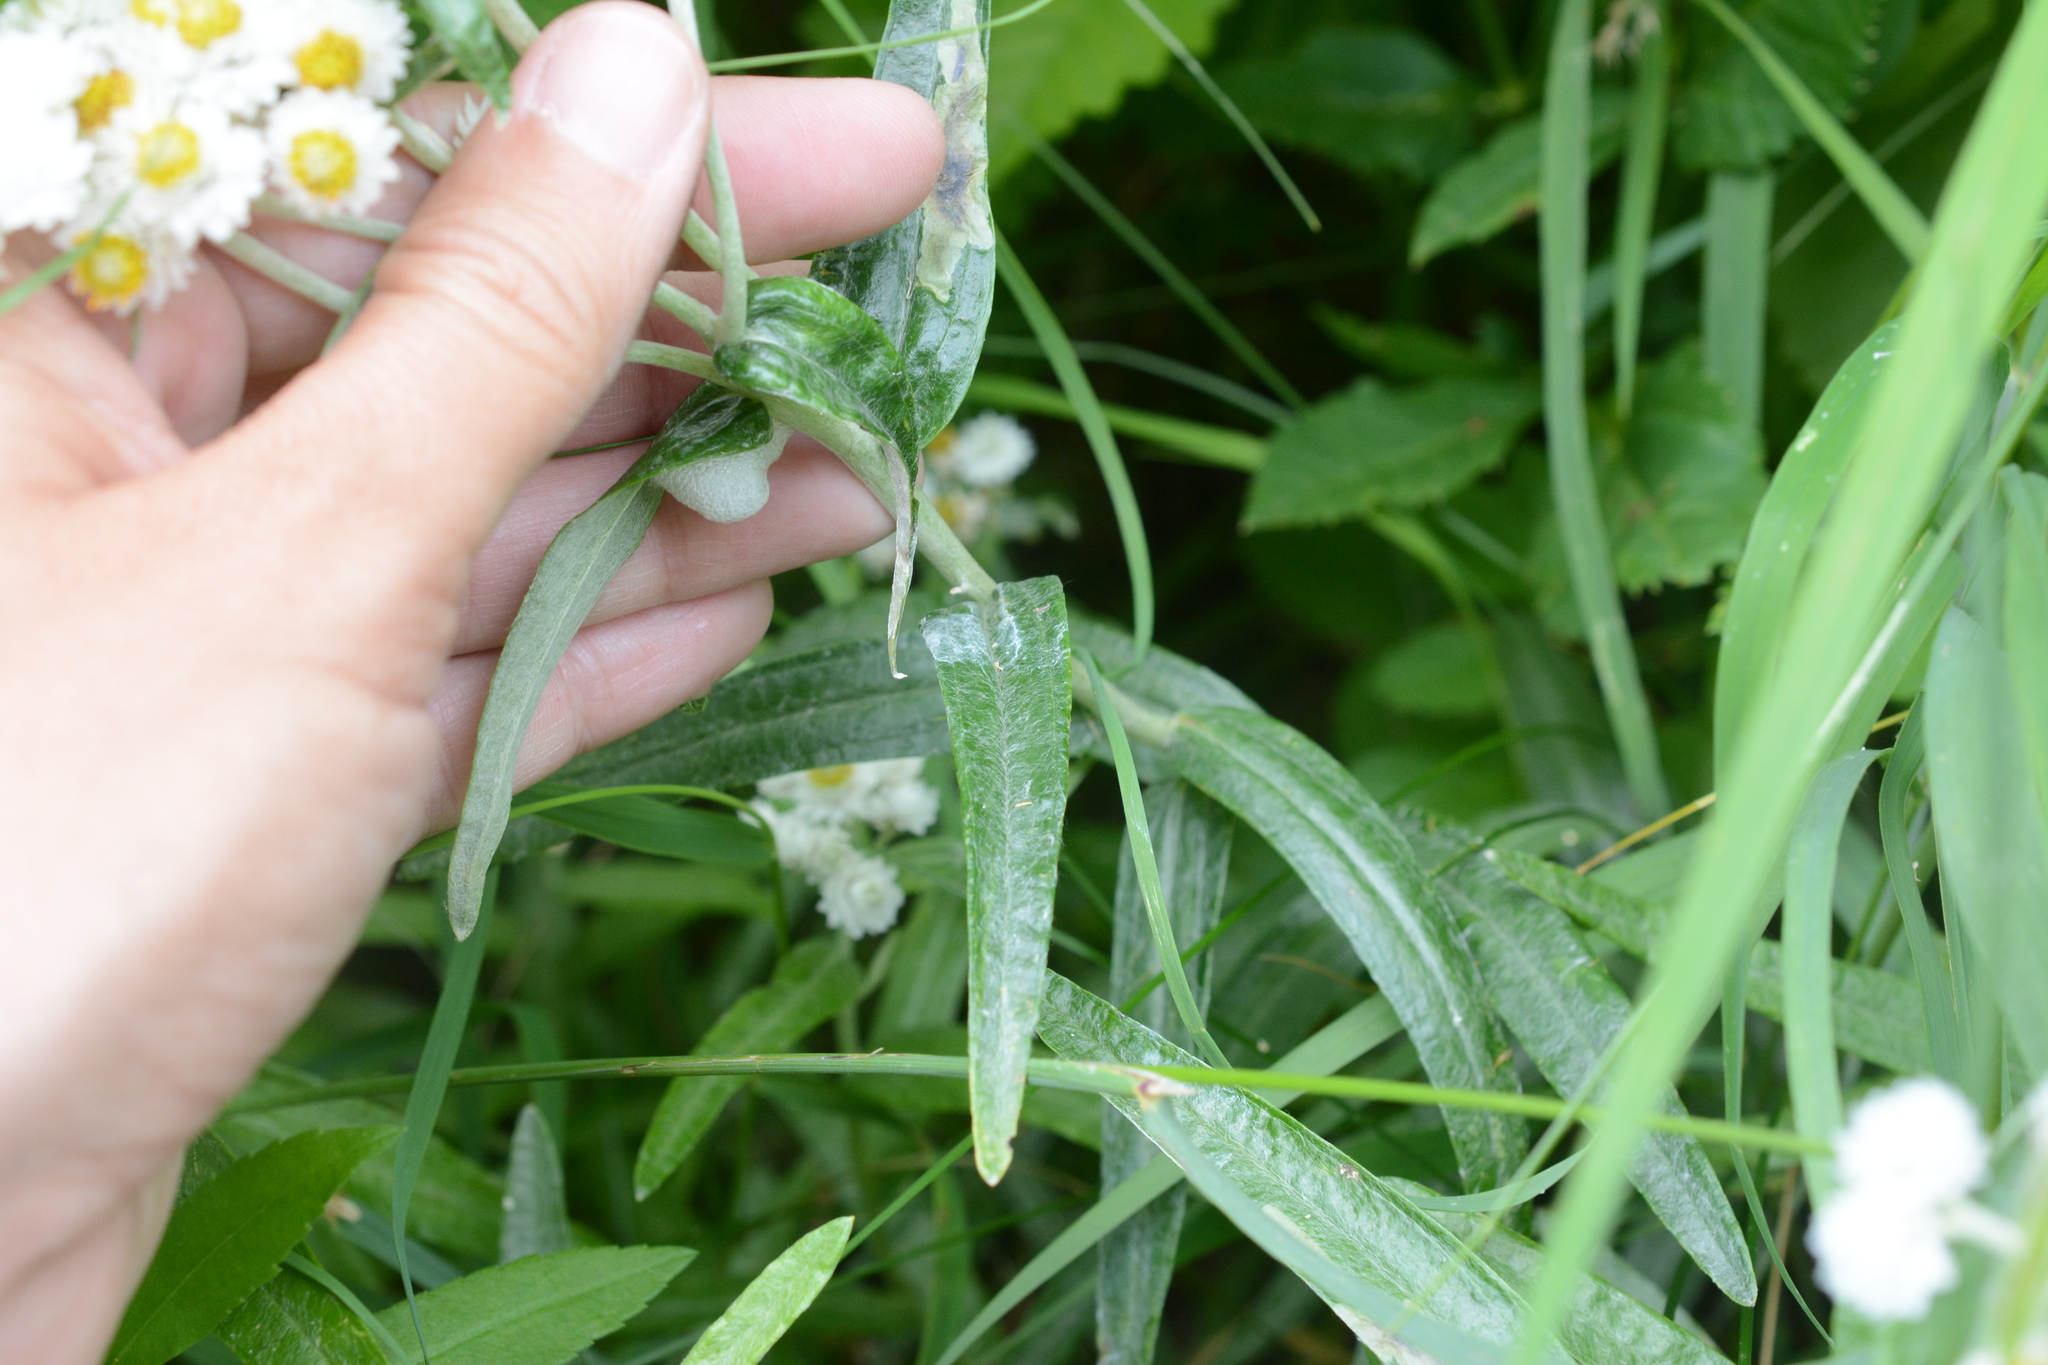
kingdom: Plantae
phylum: Tracheophyta
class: Magnoliopsida
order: Asterales
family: Asteraceae
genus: Anaphalis
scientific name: Anaphalis margaritacea
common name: Pearly everlasting
